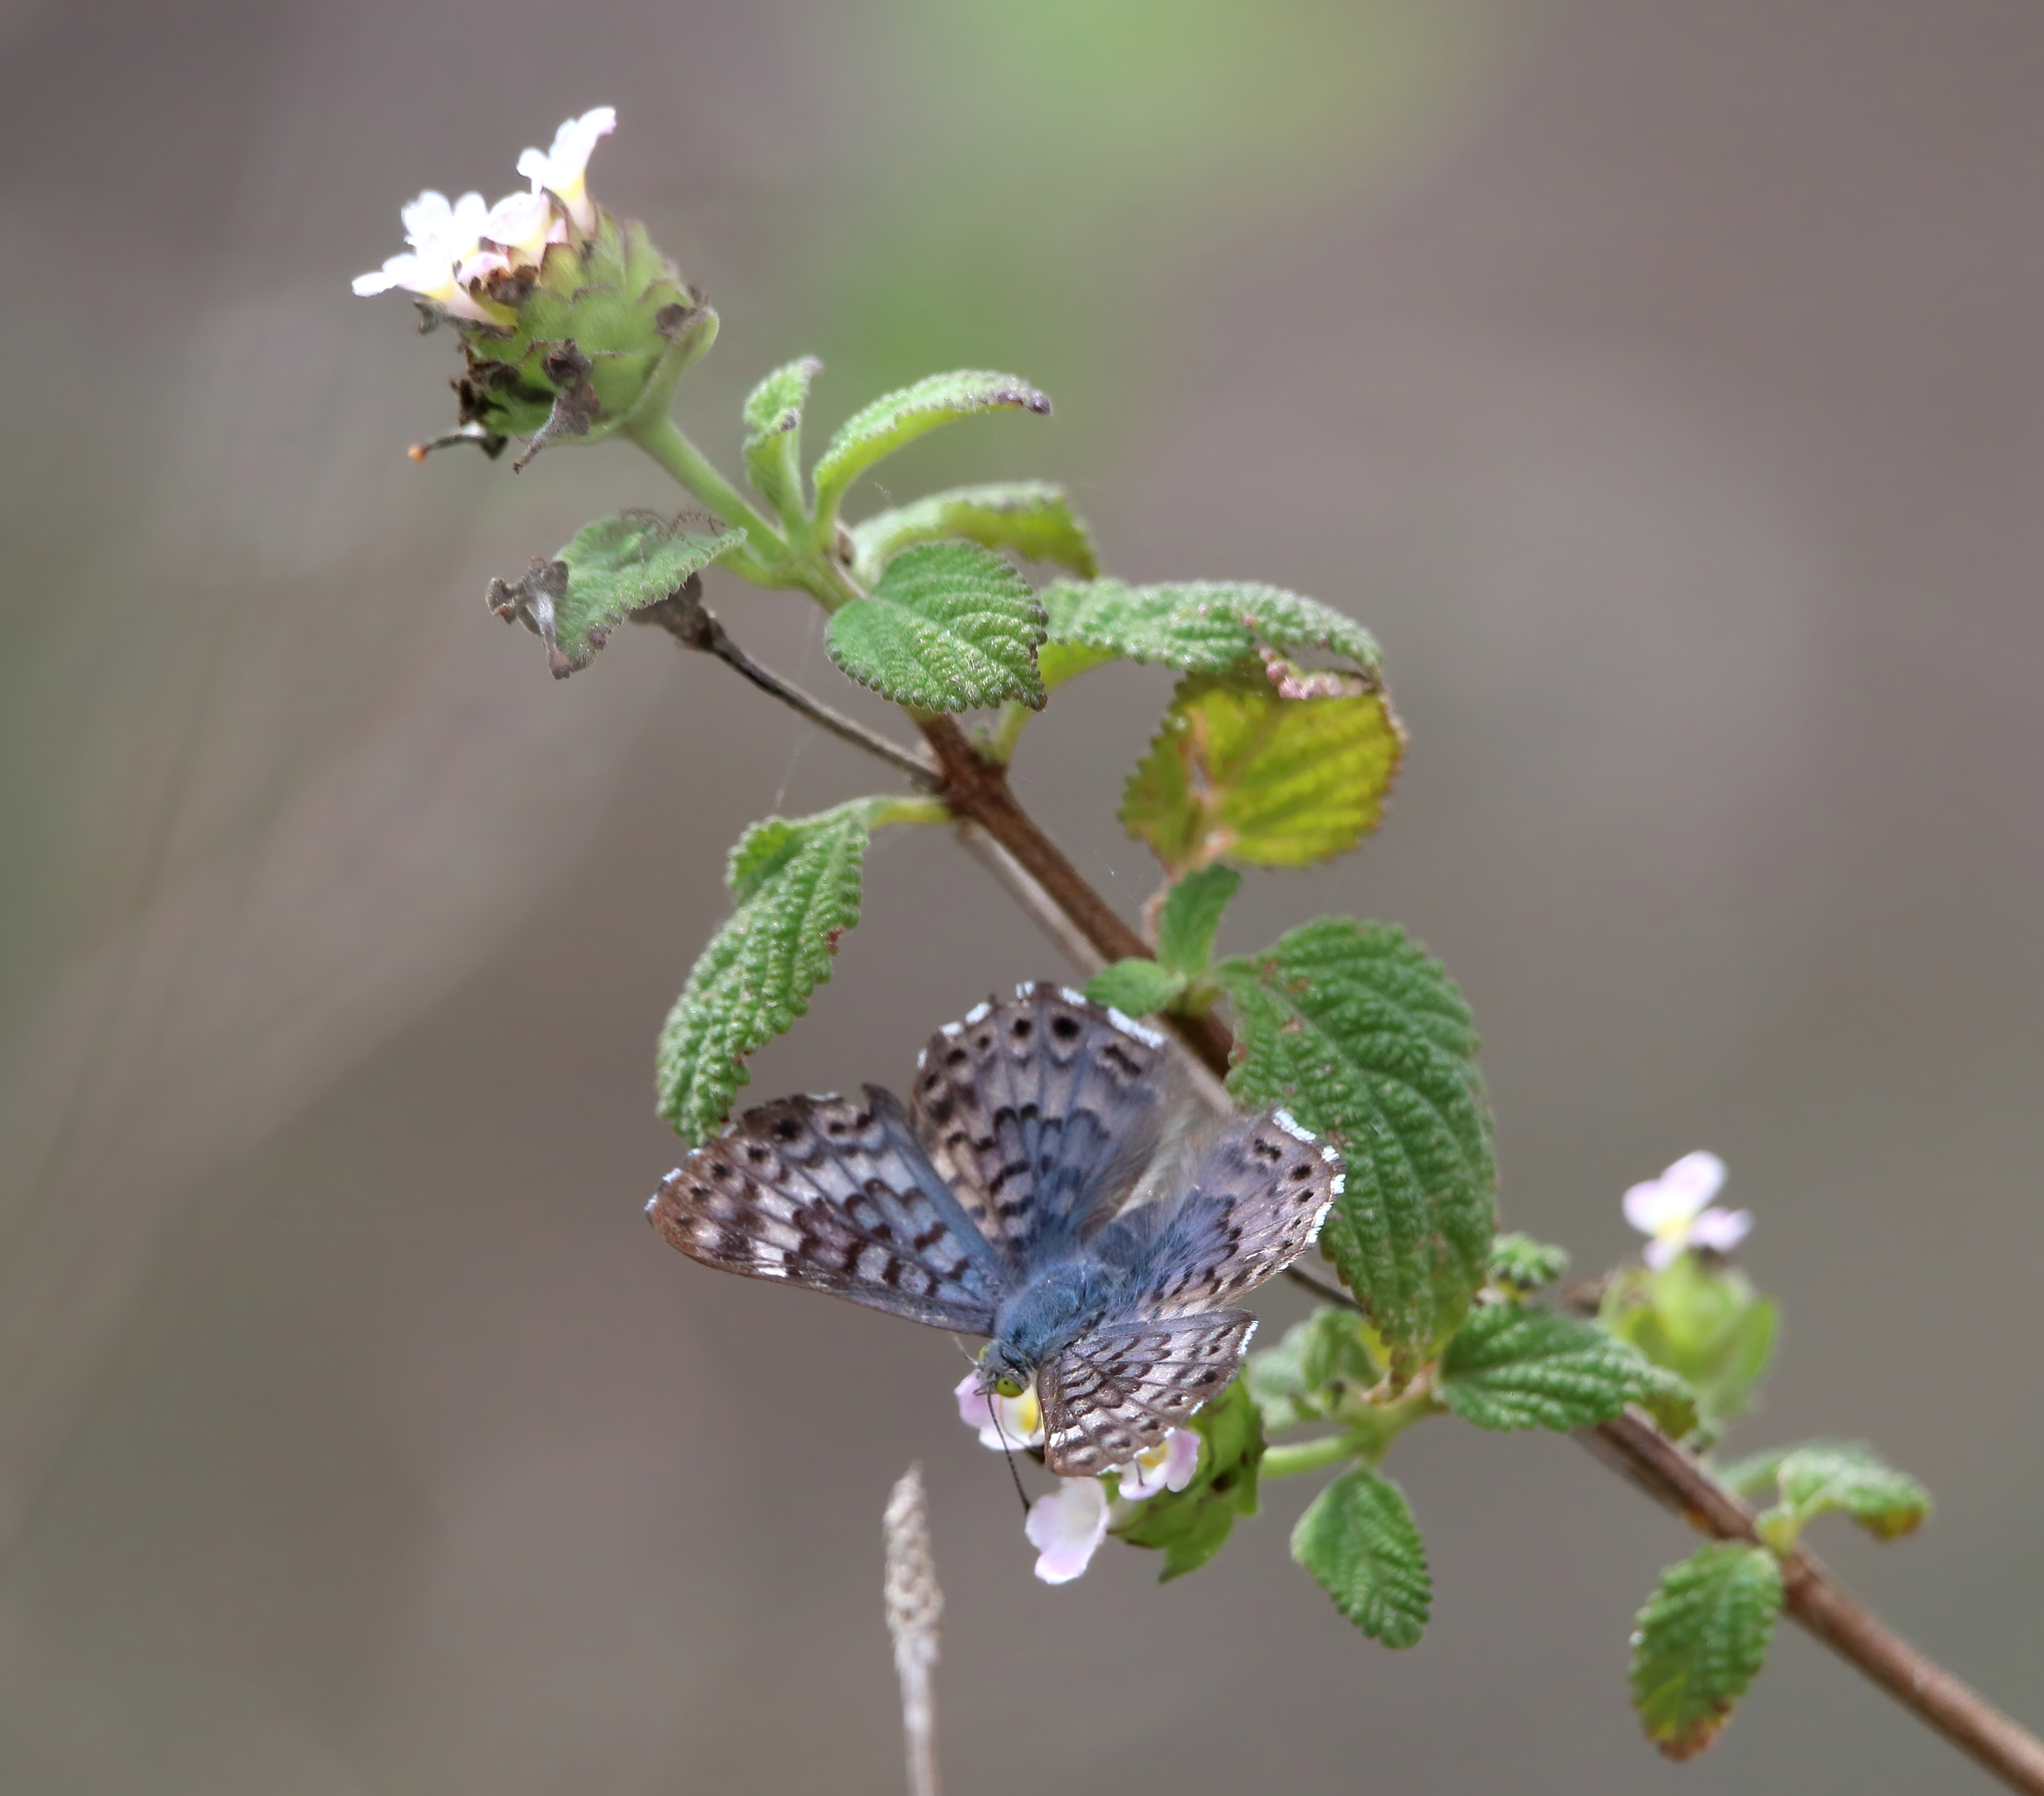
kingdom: Animalia
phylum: Arthropoda
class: Insecta
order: Lepidoptera
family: Riodinidae
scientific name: Riodinidae
